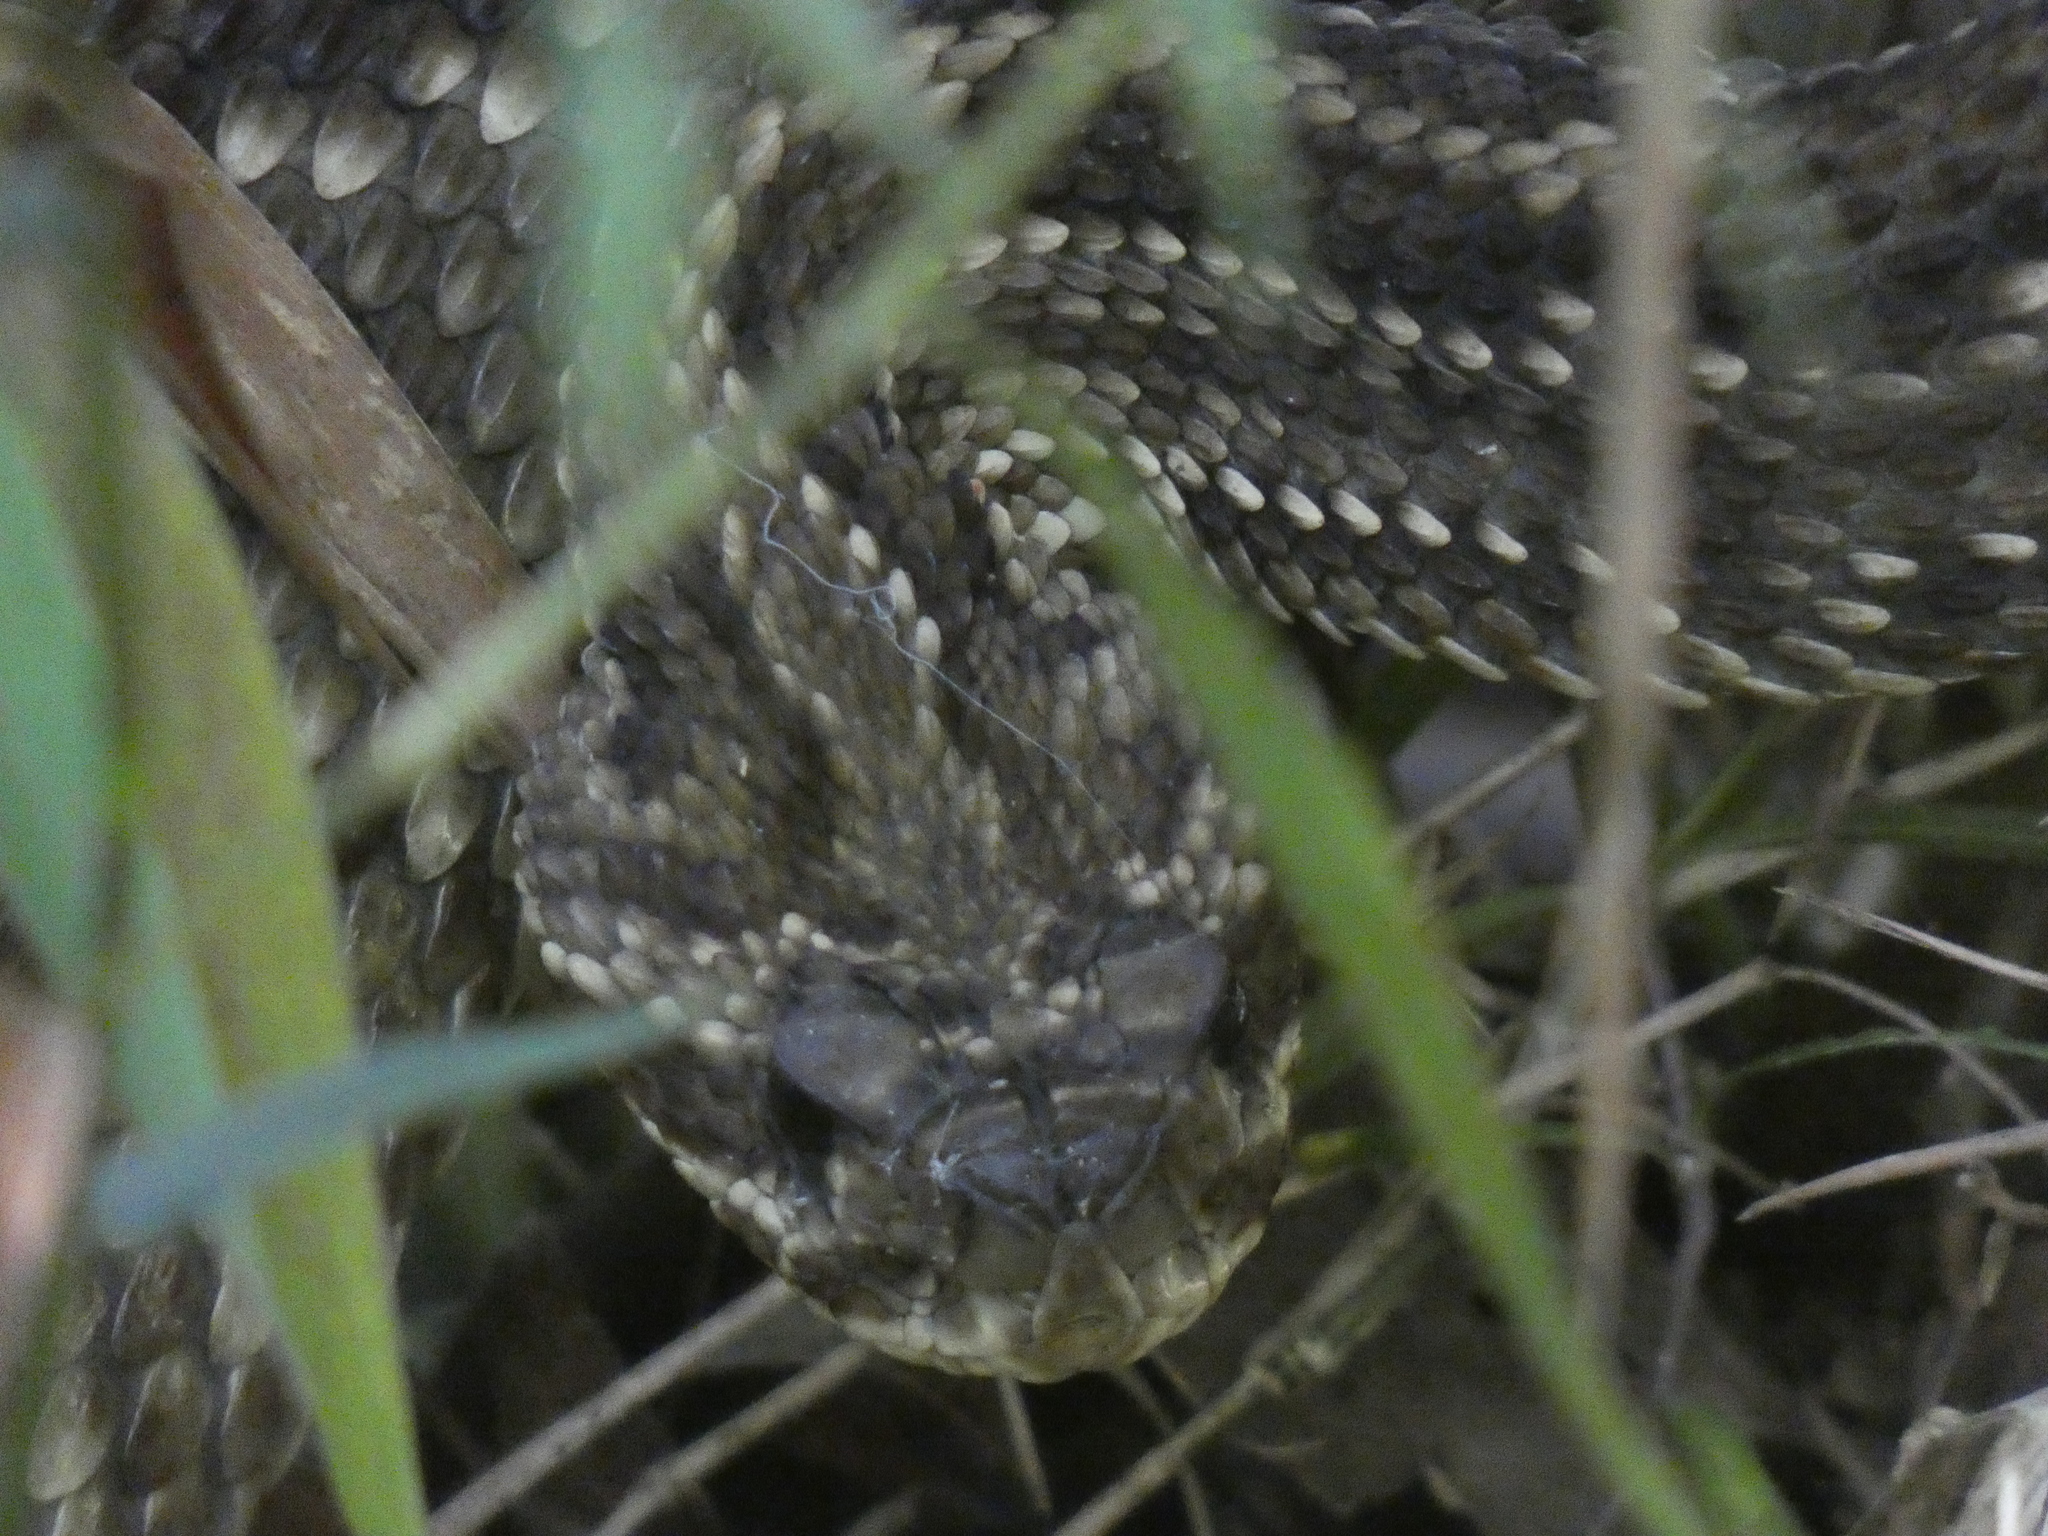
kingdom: Animalia
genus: Crotalus
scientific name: Crotalus durissus
